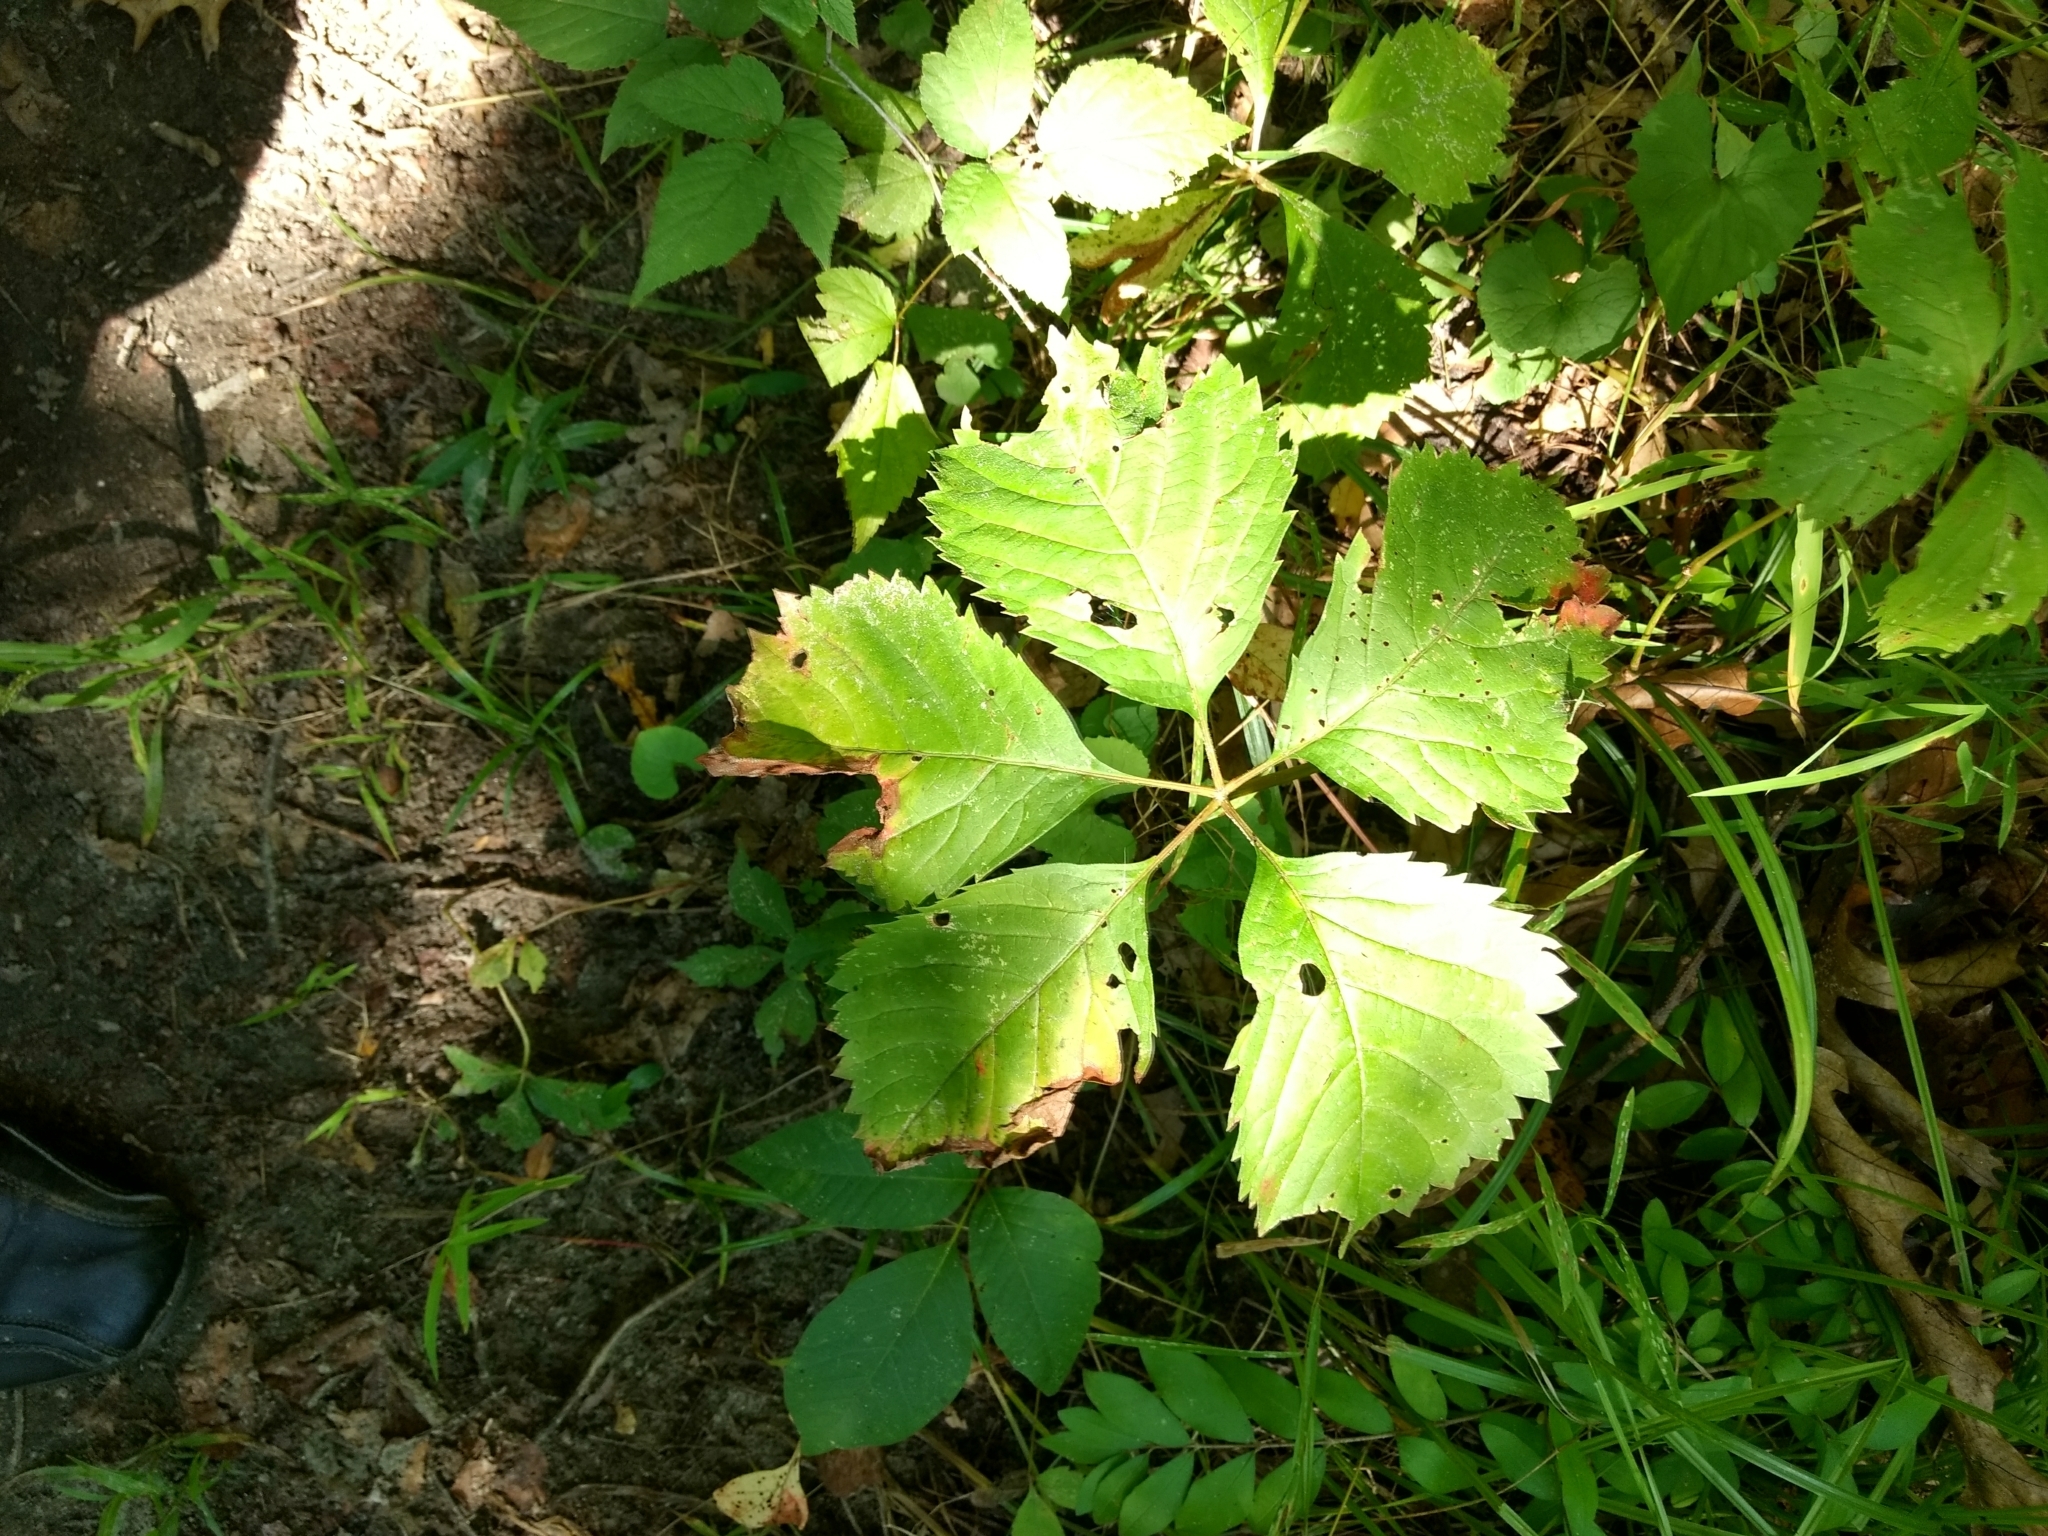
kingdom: Plantae
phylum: Tracheophyta
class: Magnoliopsida
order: Vitales
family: Vitaceae
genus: Parthenocissus
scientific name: Parthenocissus inserta
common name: False virginia-creeper
